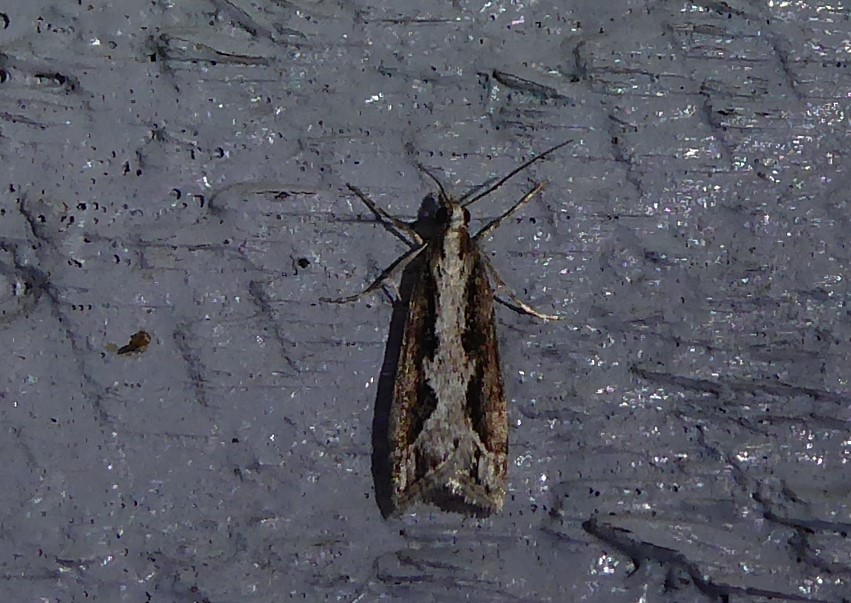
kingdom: Animalia
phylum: Arthropoda
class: Insecta
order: Lepidoptera
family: Crambidae
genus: Eudonia
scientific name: Eudonia steropaea
